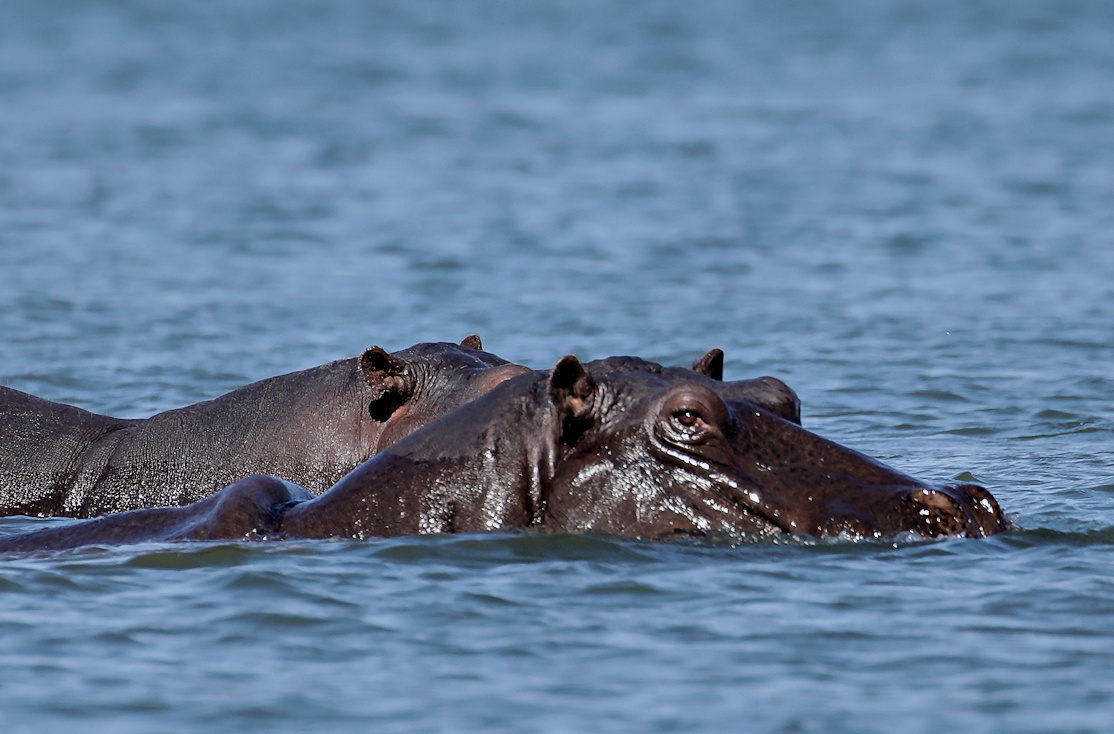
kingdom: Animalia
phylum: Chordata
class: Mammalia
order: Artiodactyla
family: Hippopotamidae
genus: Hippopotamus
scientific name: Hippopotamus amphibius
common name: Common hippopotamus
